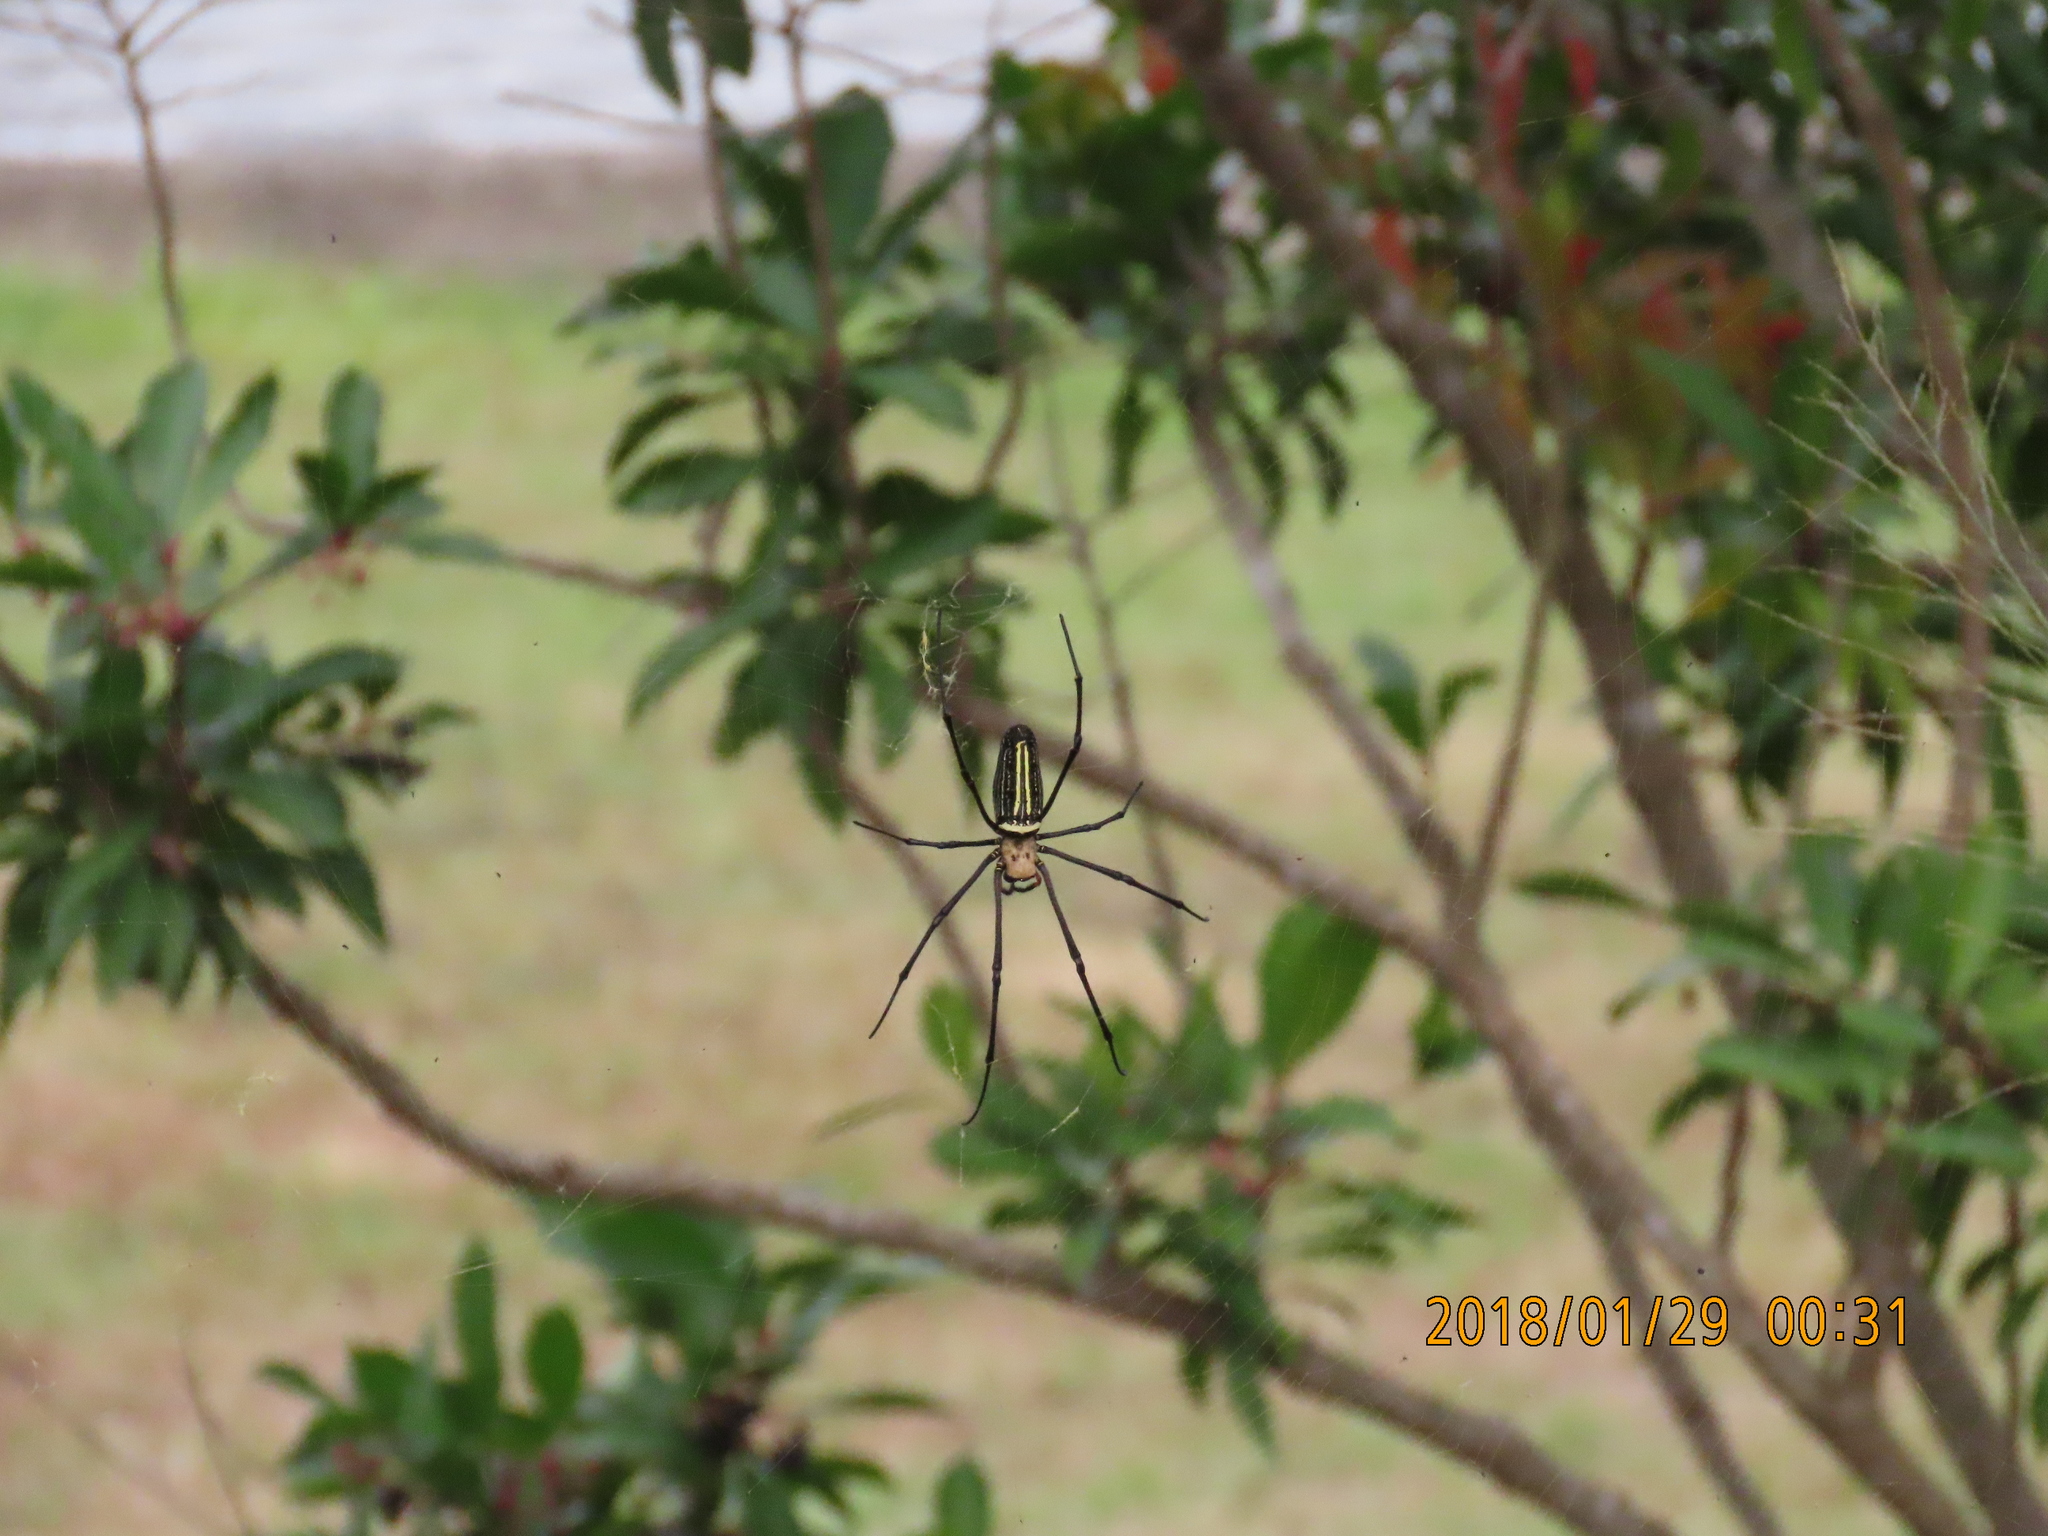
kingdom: Animalia
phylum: Arthropoda
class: Arachnida
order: Araneae
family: Araneidae
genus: Nephila
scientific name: Nephila pilipes
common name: Giant golden orb weaver
